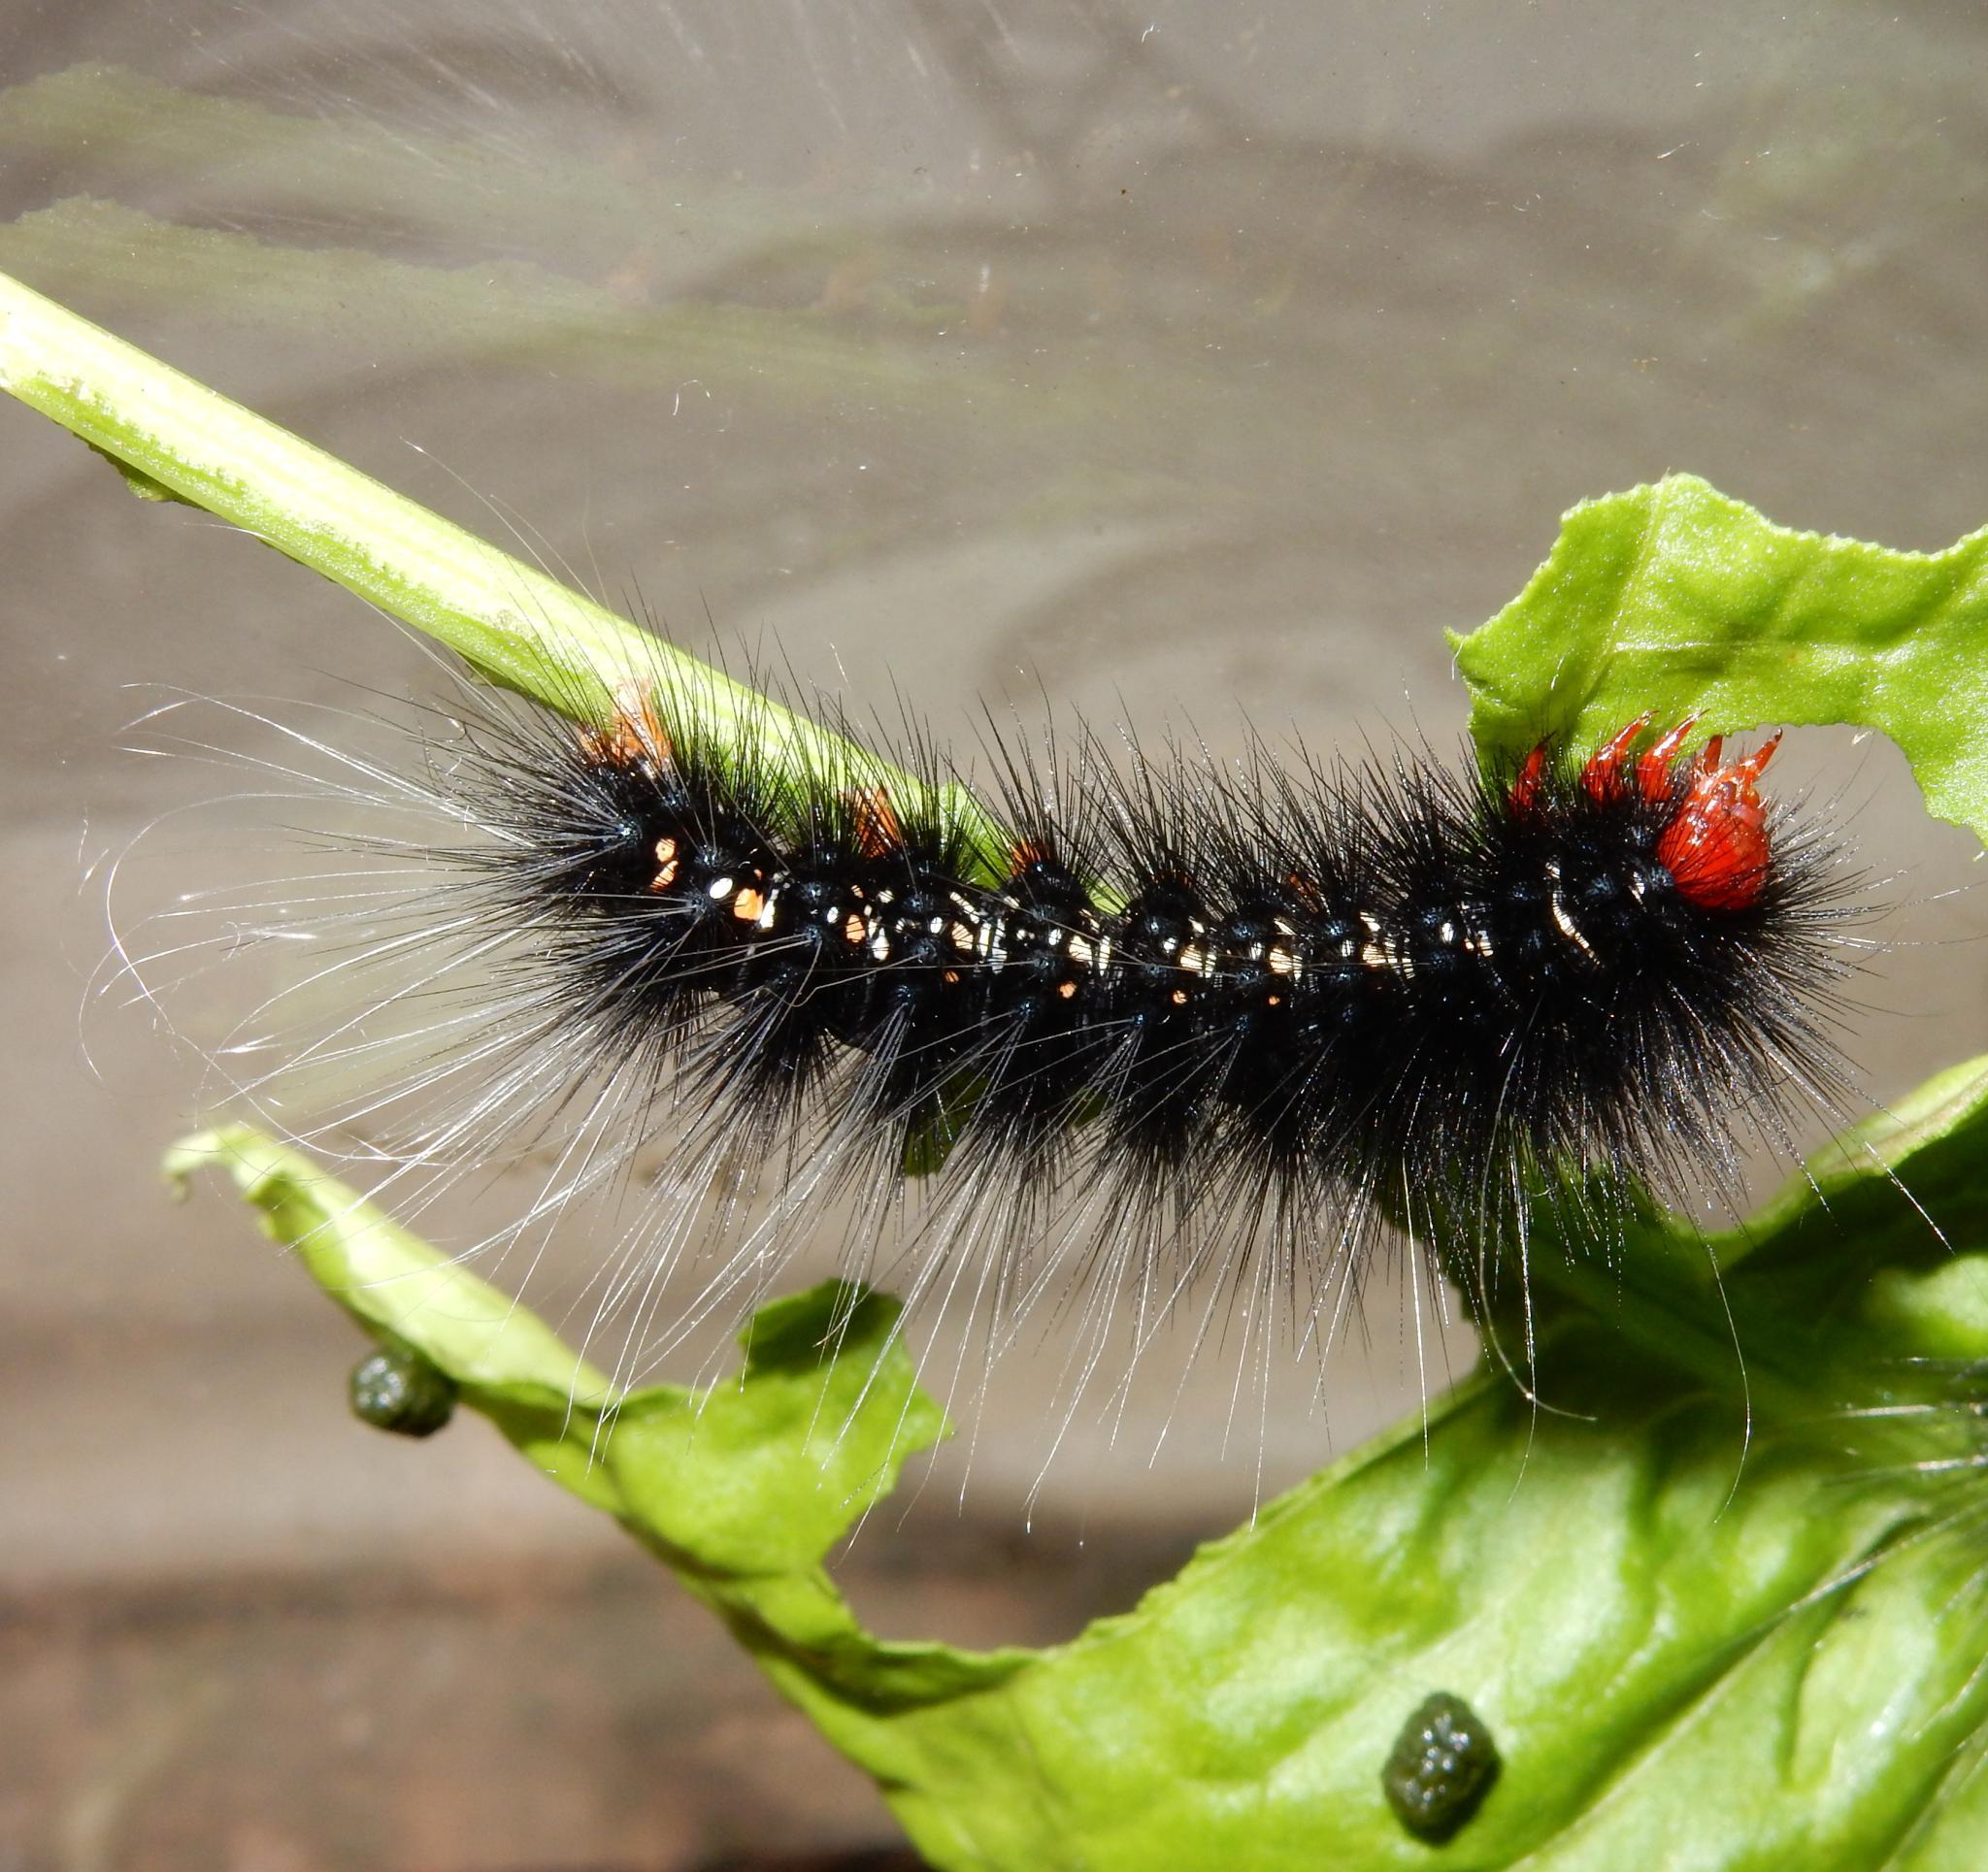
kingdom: Animalia
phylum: Arthropoda
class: Insecta
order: Lepidoptera
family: Erebidae
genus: Afromurzinia
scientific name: Afromurzinia lutescens
